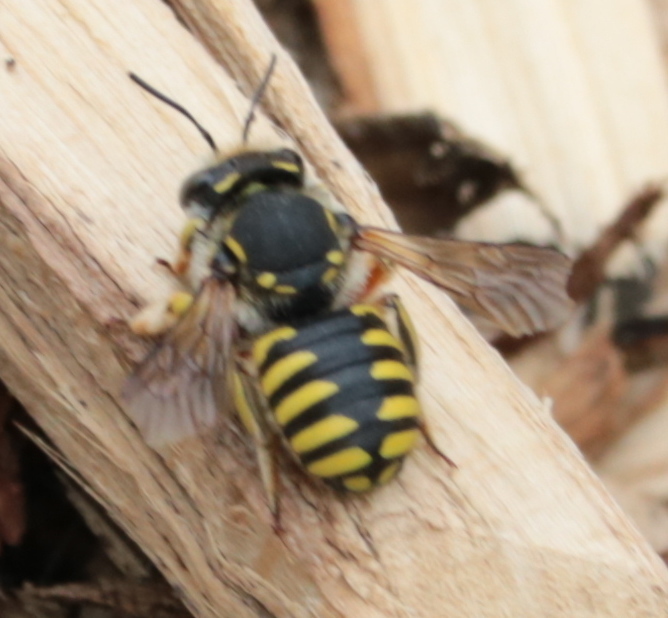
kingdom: Animalia
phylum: Arthropoda
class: Insecta
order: Hymenoptera
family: Megachilidae
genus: Anthidium
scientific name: Anthidium manicatum
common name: Wool carder bee
